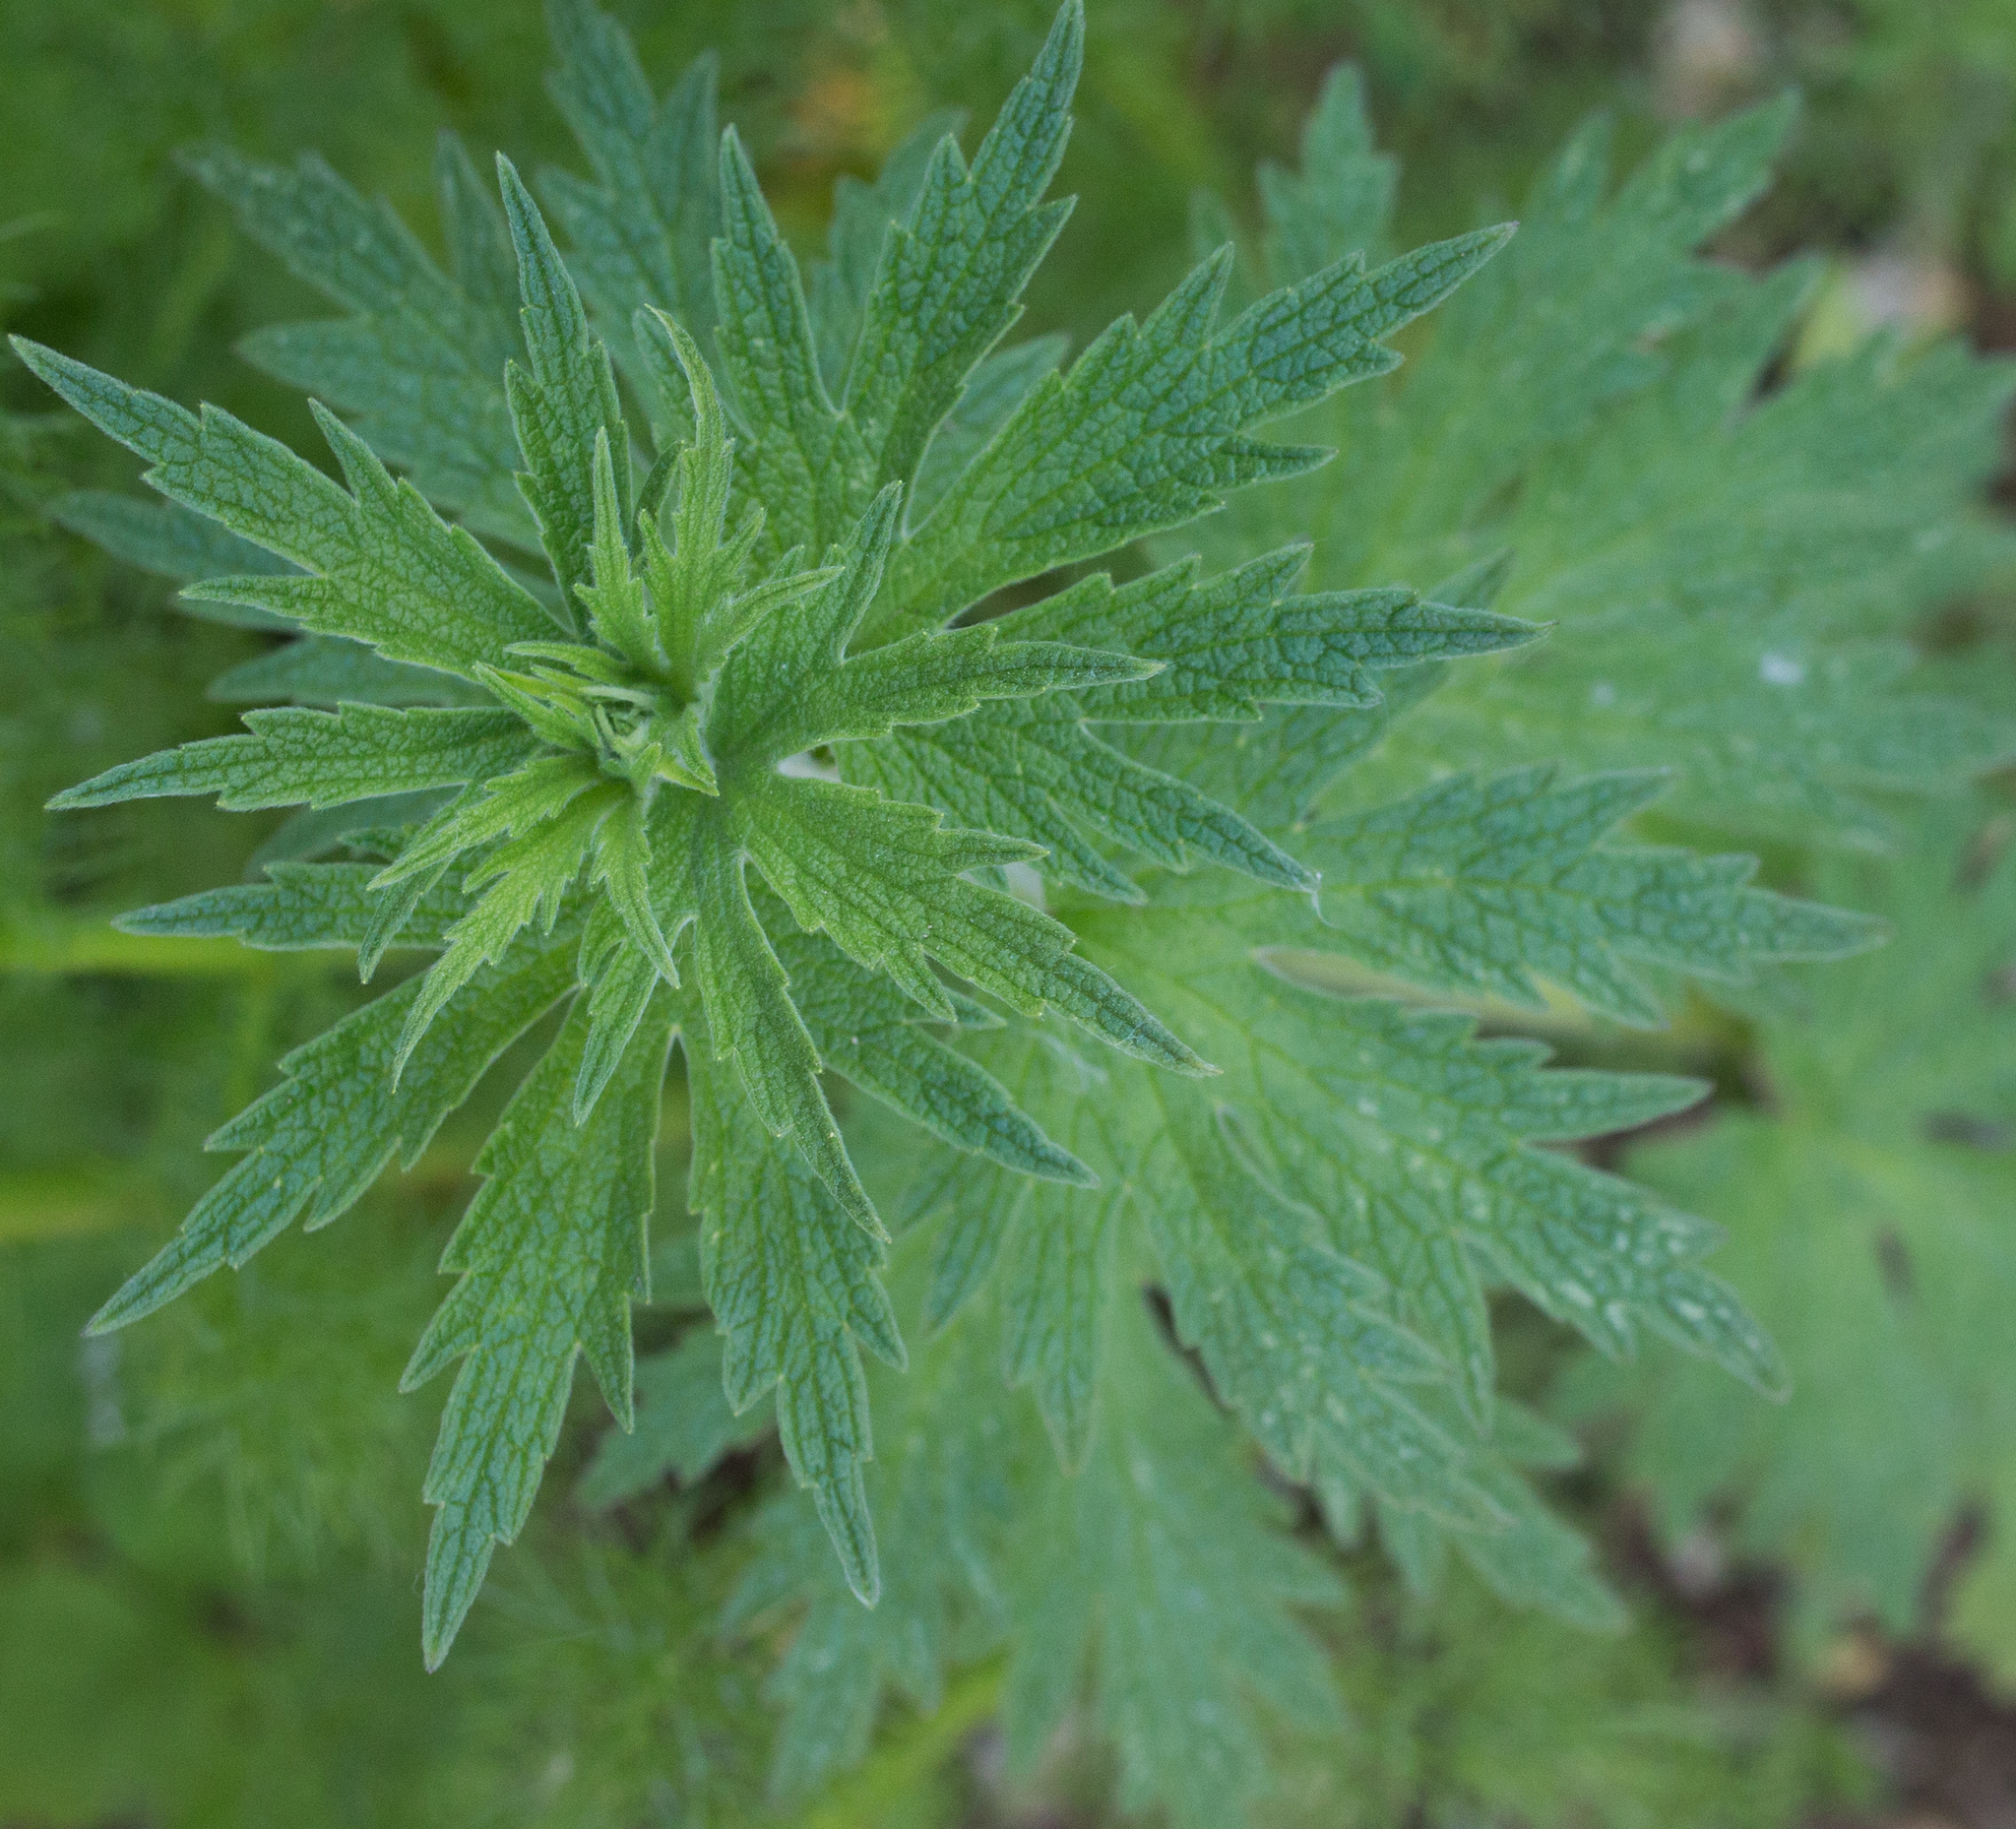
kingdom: Plantae
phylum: Tracheophyta
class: Magnoliopsida
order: Lamiales
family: Lamiaceae
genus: Leonurus
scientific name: Leonurus quinquelobatus
